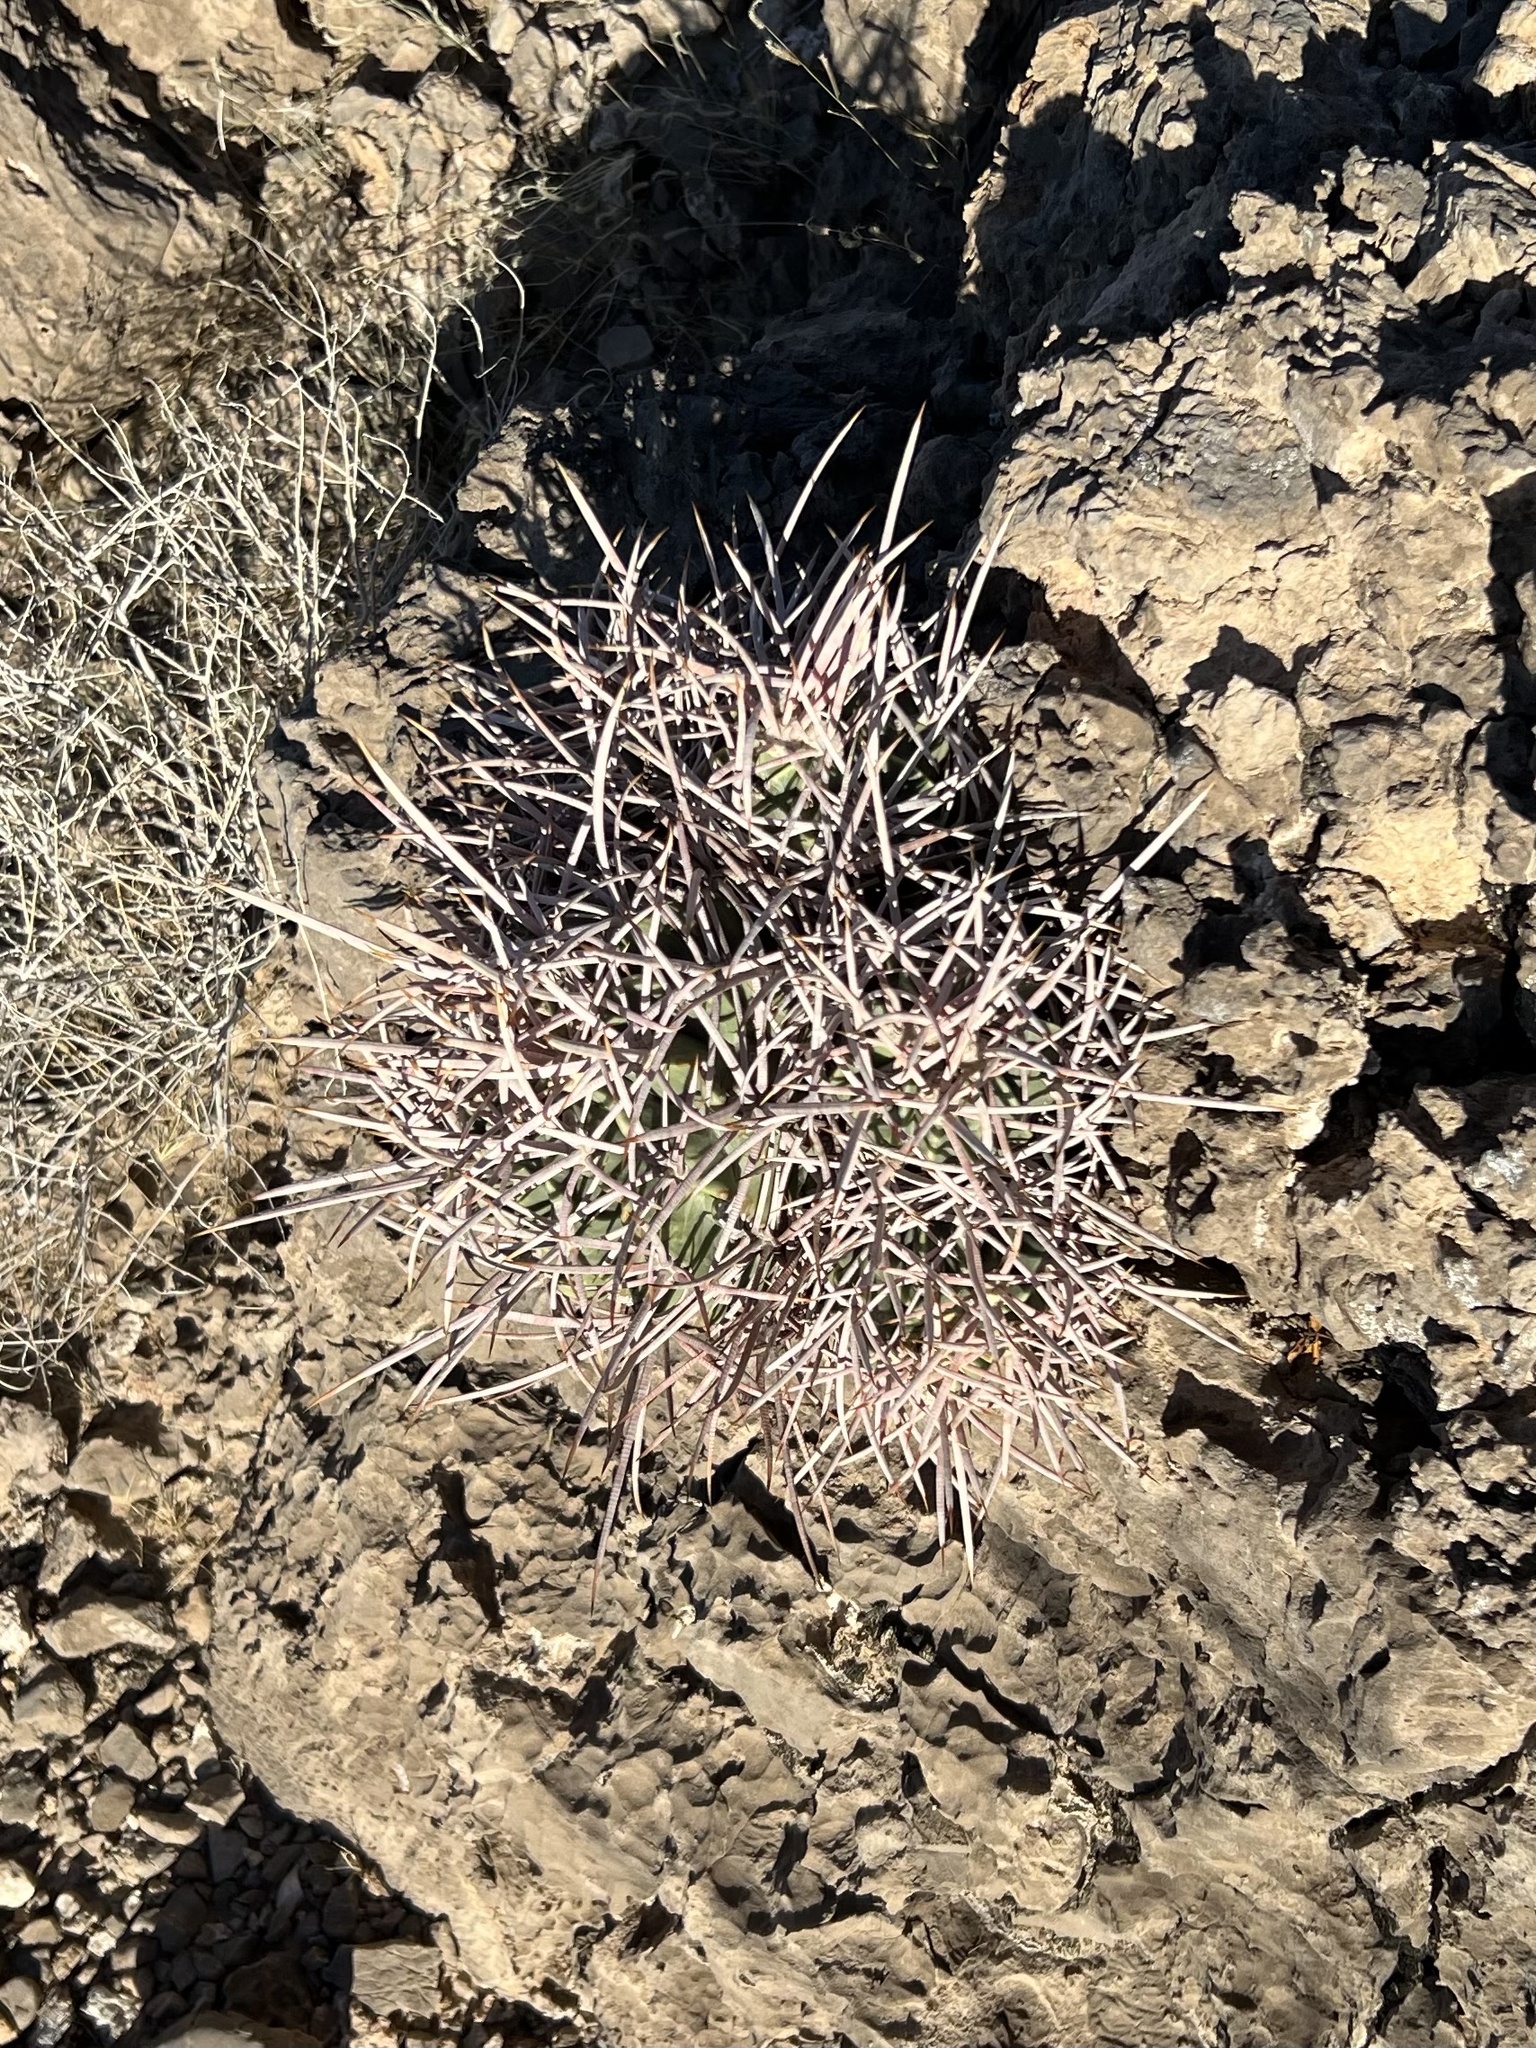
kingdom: Plantae
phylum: Tracheophyta
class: Magnoliopsida
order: Caryophyllales
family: Cactaceae
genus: Echinocactus
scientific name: Echinocactus polycephalus
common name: Cottontop cactus
